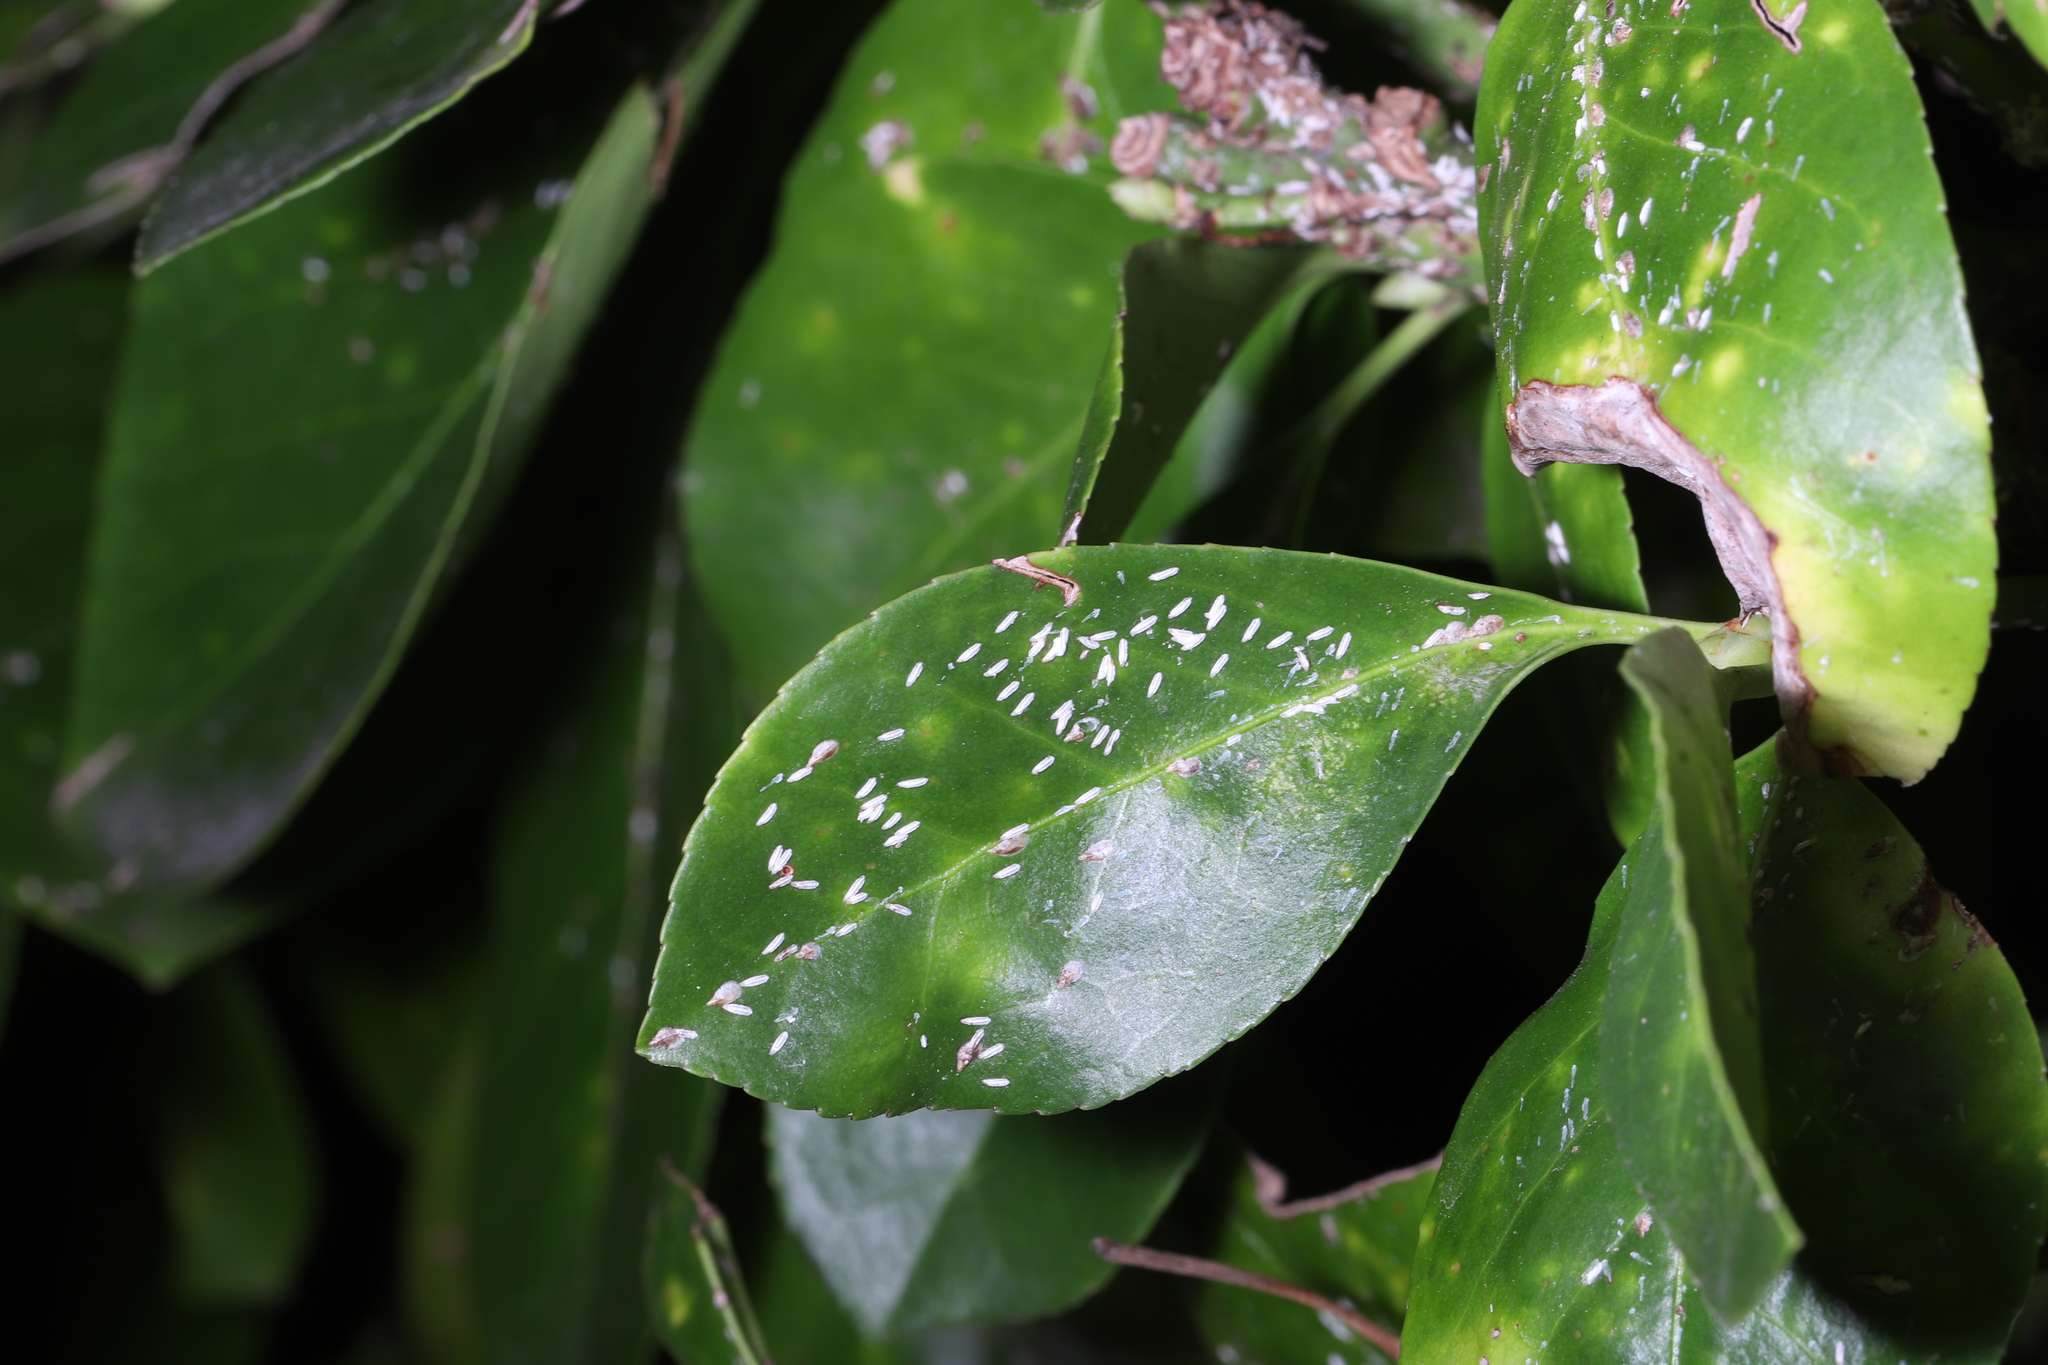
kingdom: Animalia
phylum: Arthropoda
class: Insecta
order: Hemiptera
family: Diaspididae
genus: Unaspis
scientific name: Unaspis euonymi
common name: Euonymus scale
